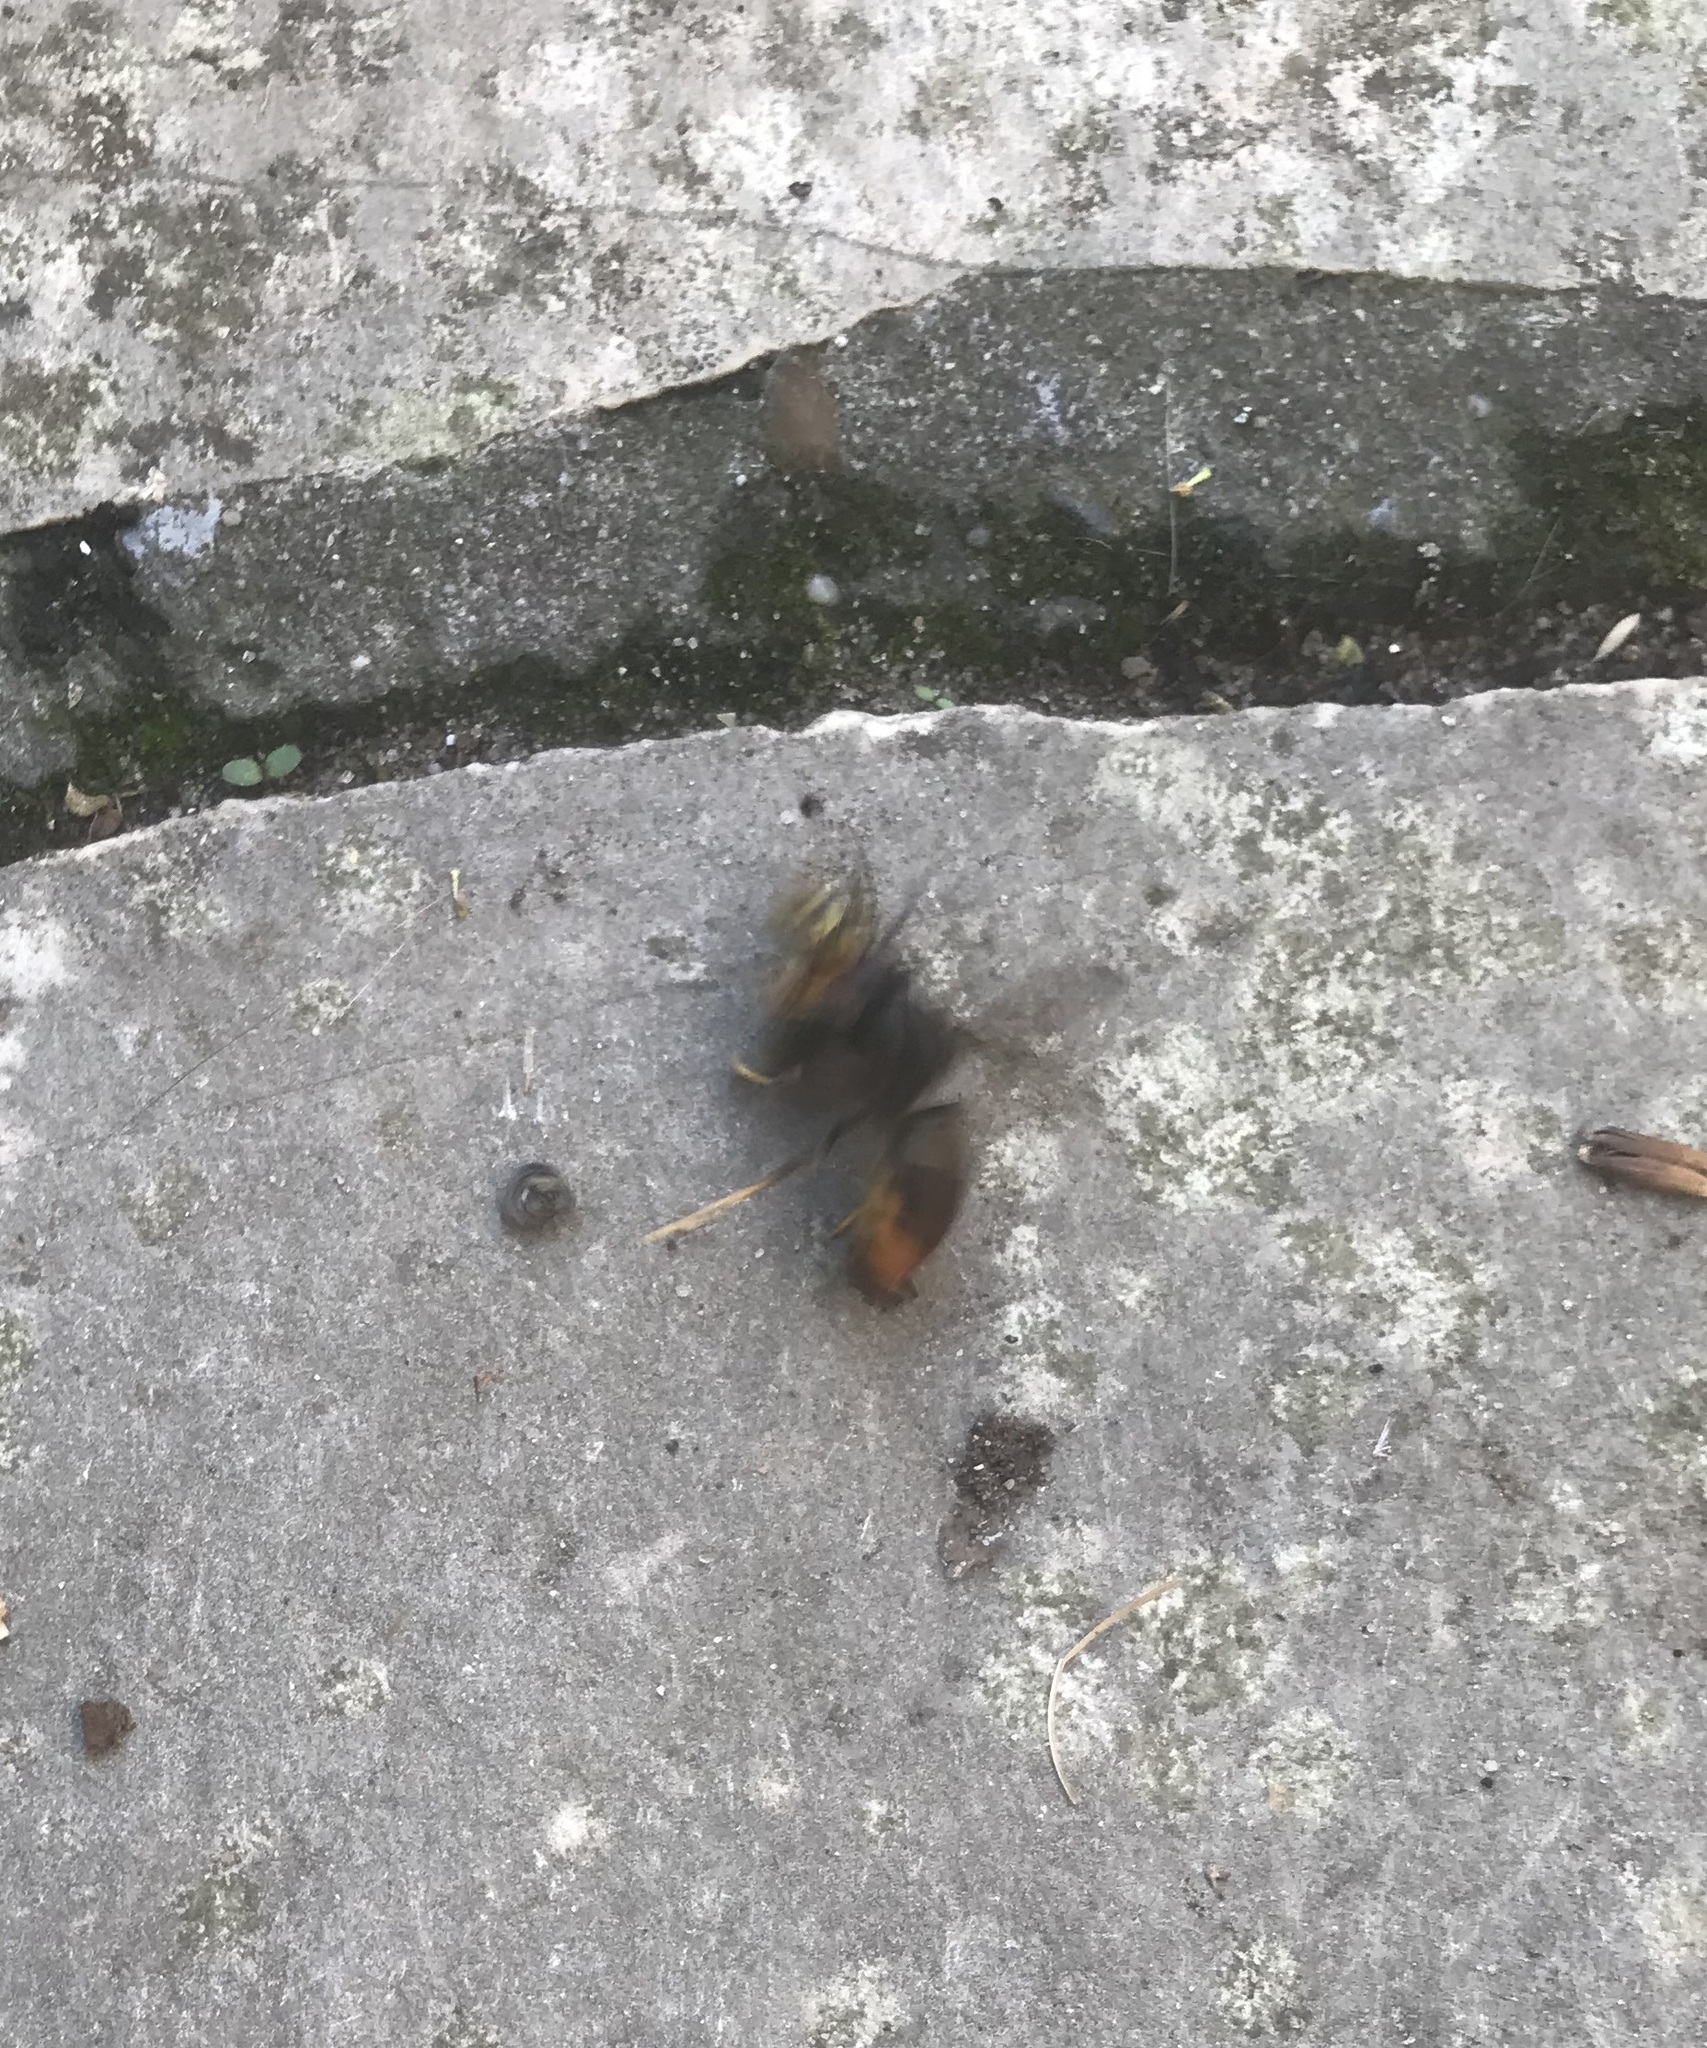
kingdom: Animalia
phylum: Arthropoda
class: Insecta
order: Hymenoptera
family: Vespidae
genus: Vespa
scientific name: Vespa velutina
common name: Asian hornet
